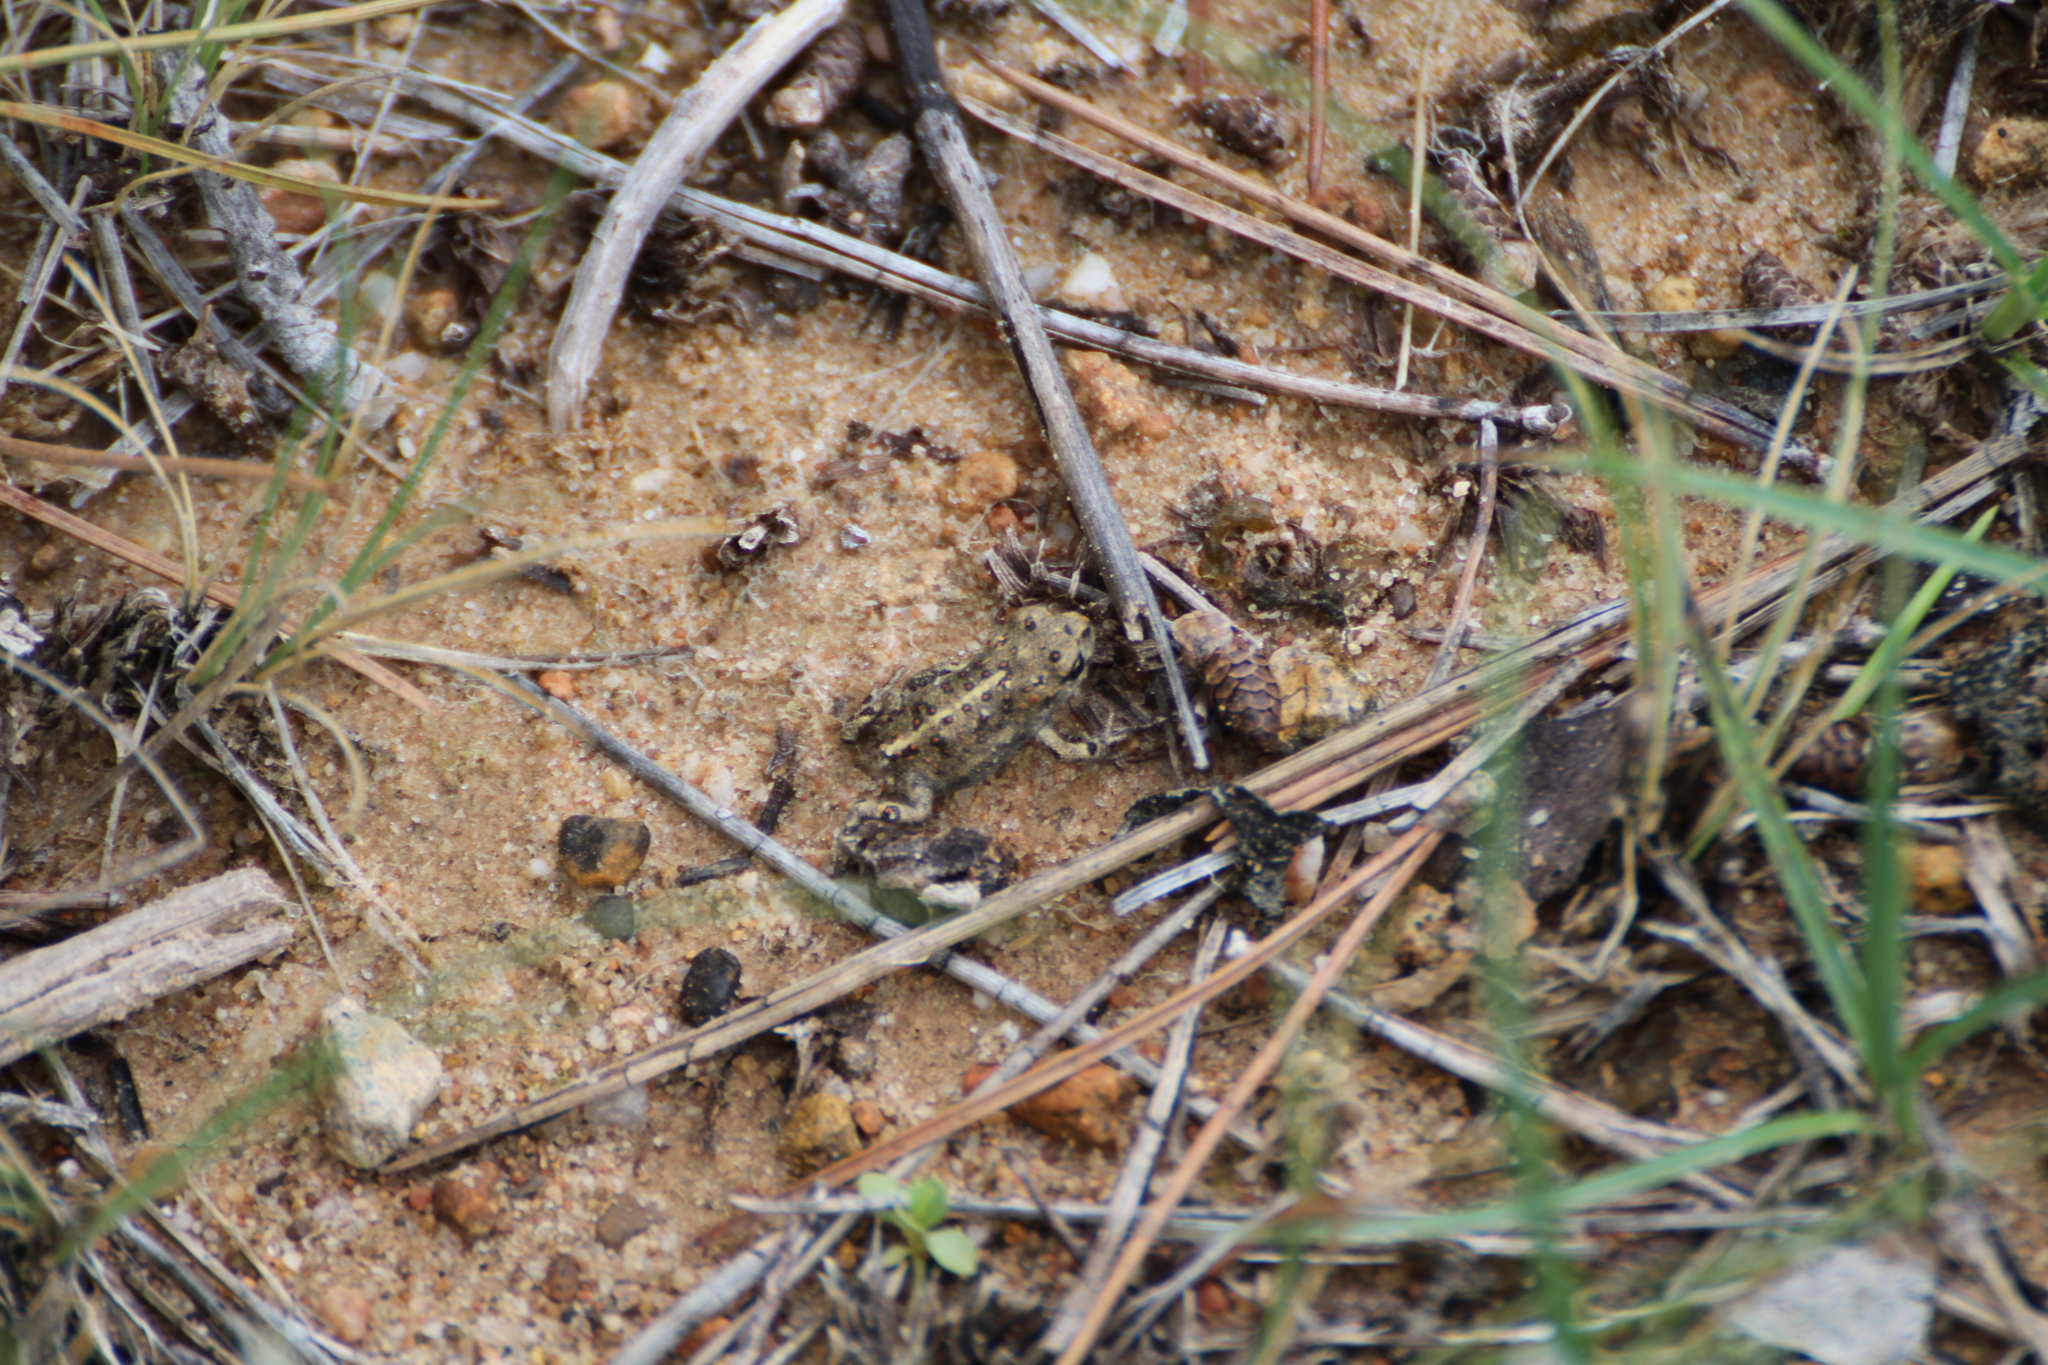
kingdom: Animalia
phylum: Chordata
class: Amphibia
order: Anura
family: Bufonidae
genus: Epidalea
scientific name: Epidalea calamita
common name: Natterjack toad
